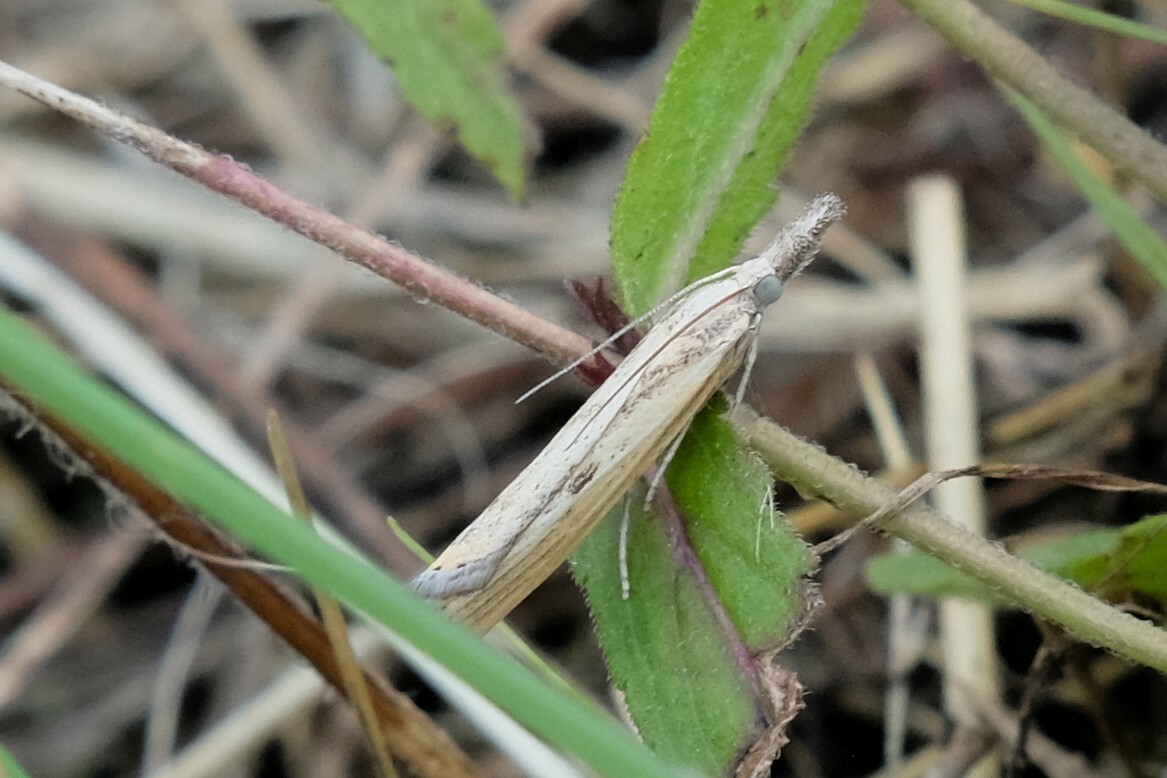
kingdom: Animalia
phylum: Arthropoda
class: Insecta
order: Lepidoptera
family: Crambidae
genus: Agriphila
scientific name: Agriphila inquinatella
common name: Barred grass-veneer
